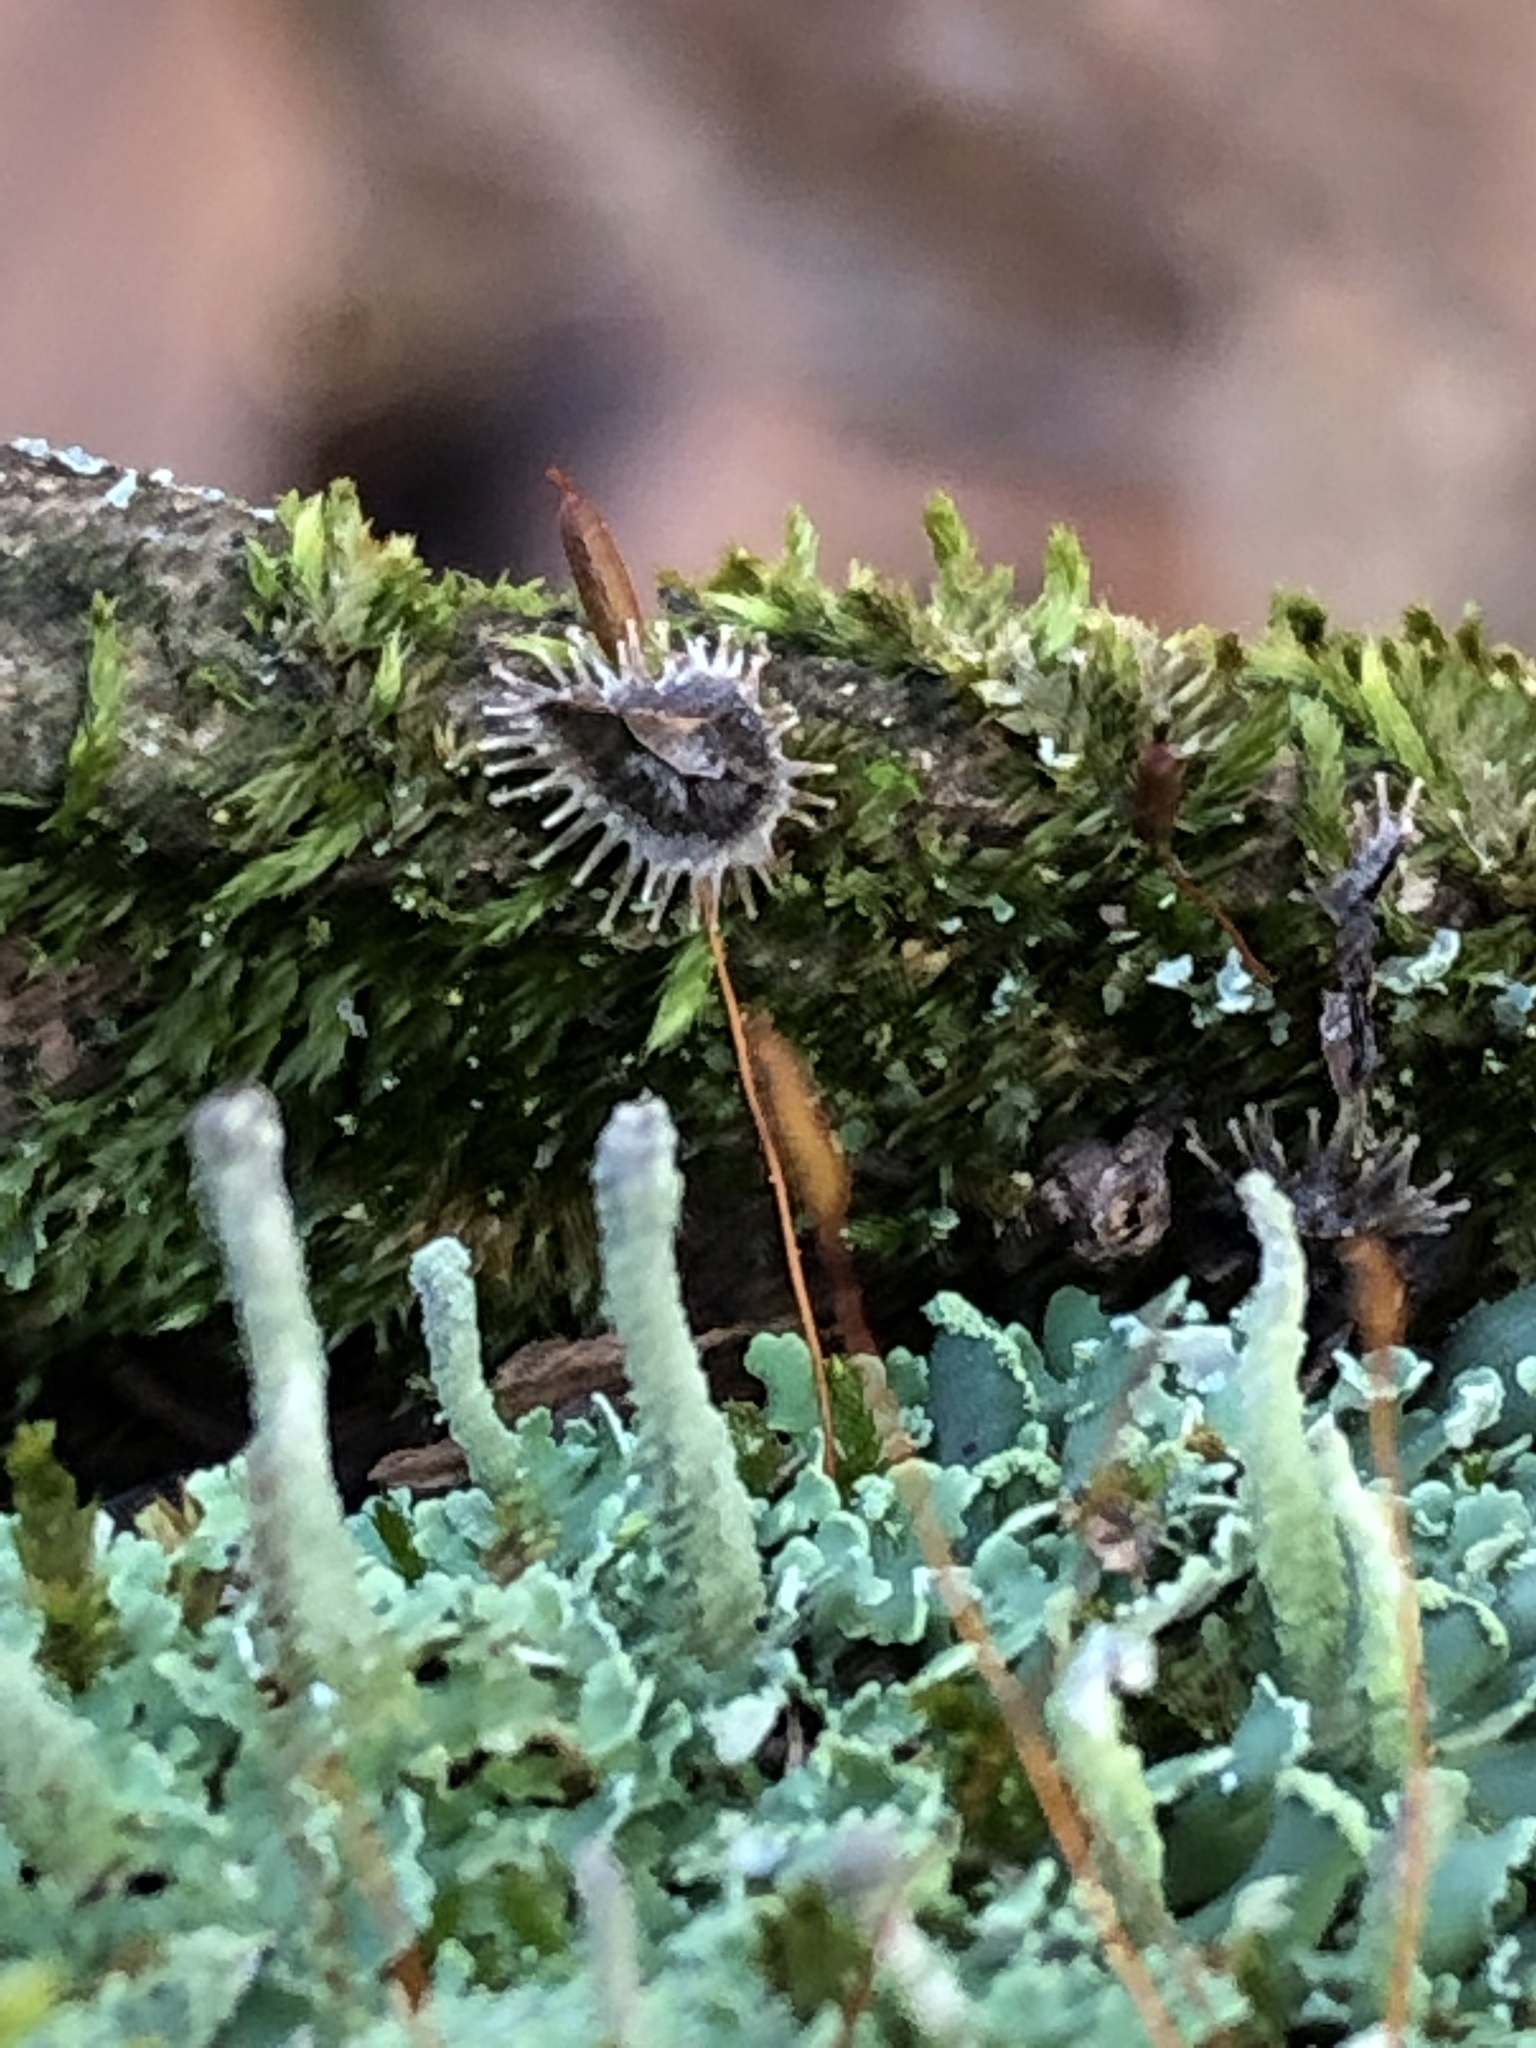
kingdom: Fungi
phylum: Ascomycota
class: Lecanoromycetes
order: Lecanorales
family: Cladoniaceae
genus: Cladonia
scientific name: Cladonia coniocraea
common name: Common powderhorn
